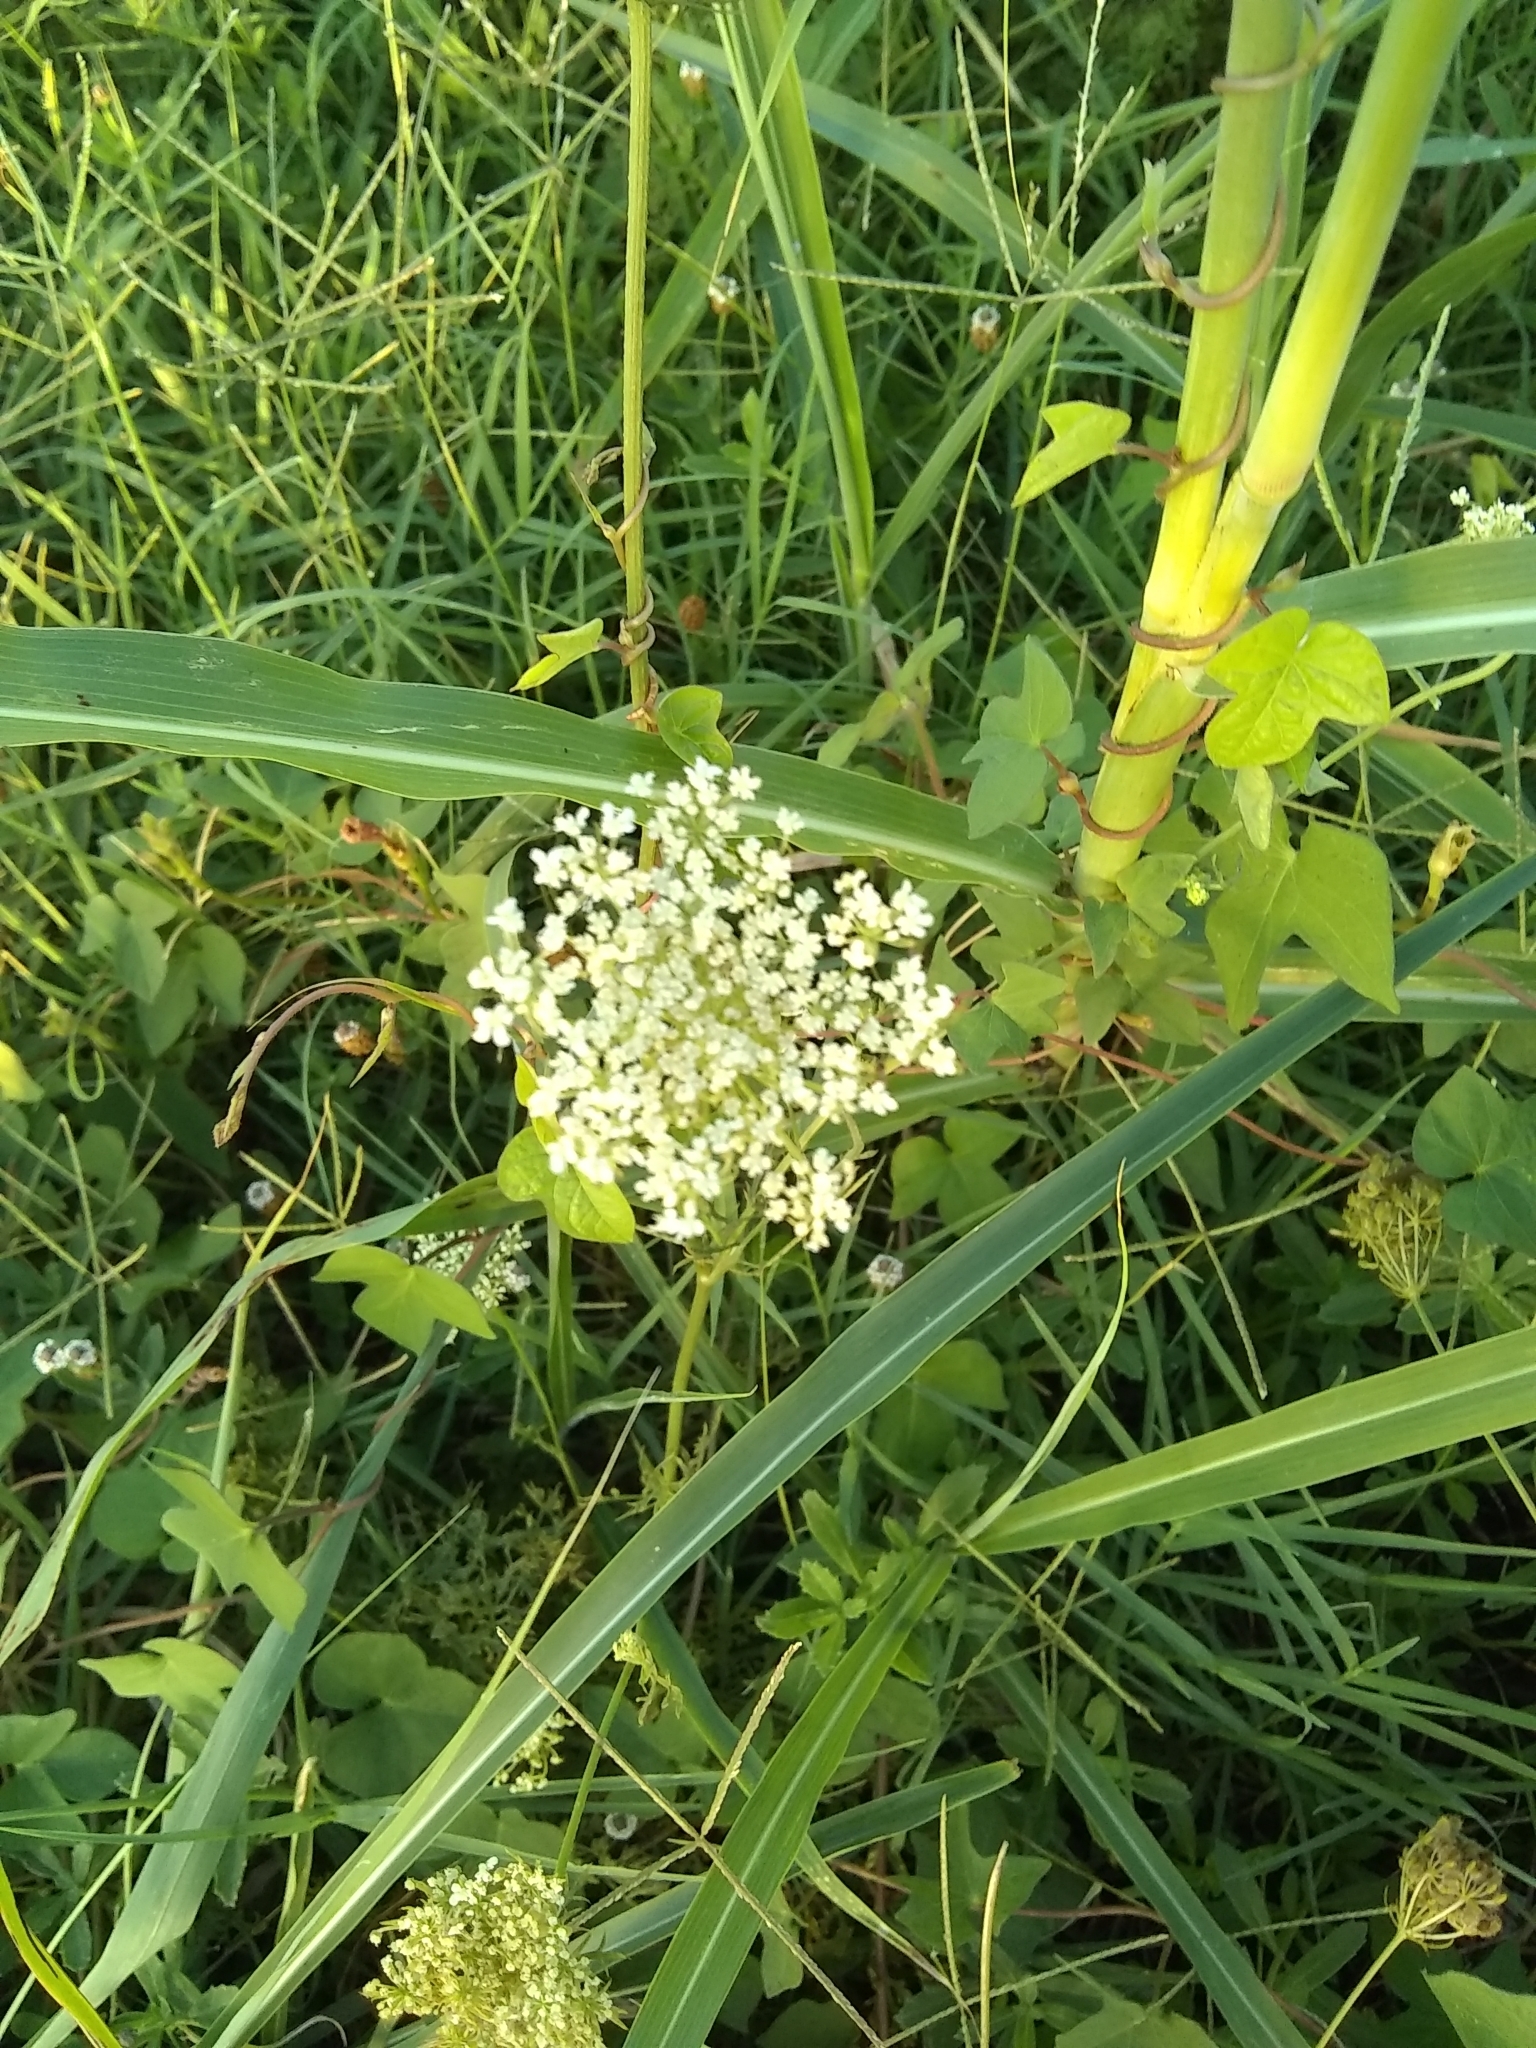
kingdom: Plantae
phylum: Tracheophyta
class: Magnoliopsida
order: Apiales
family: Apiaceae
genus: Daucus
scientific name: Daucus carota
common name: Wild carrot
